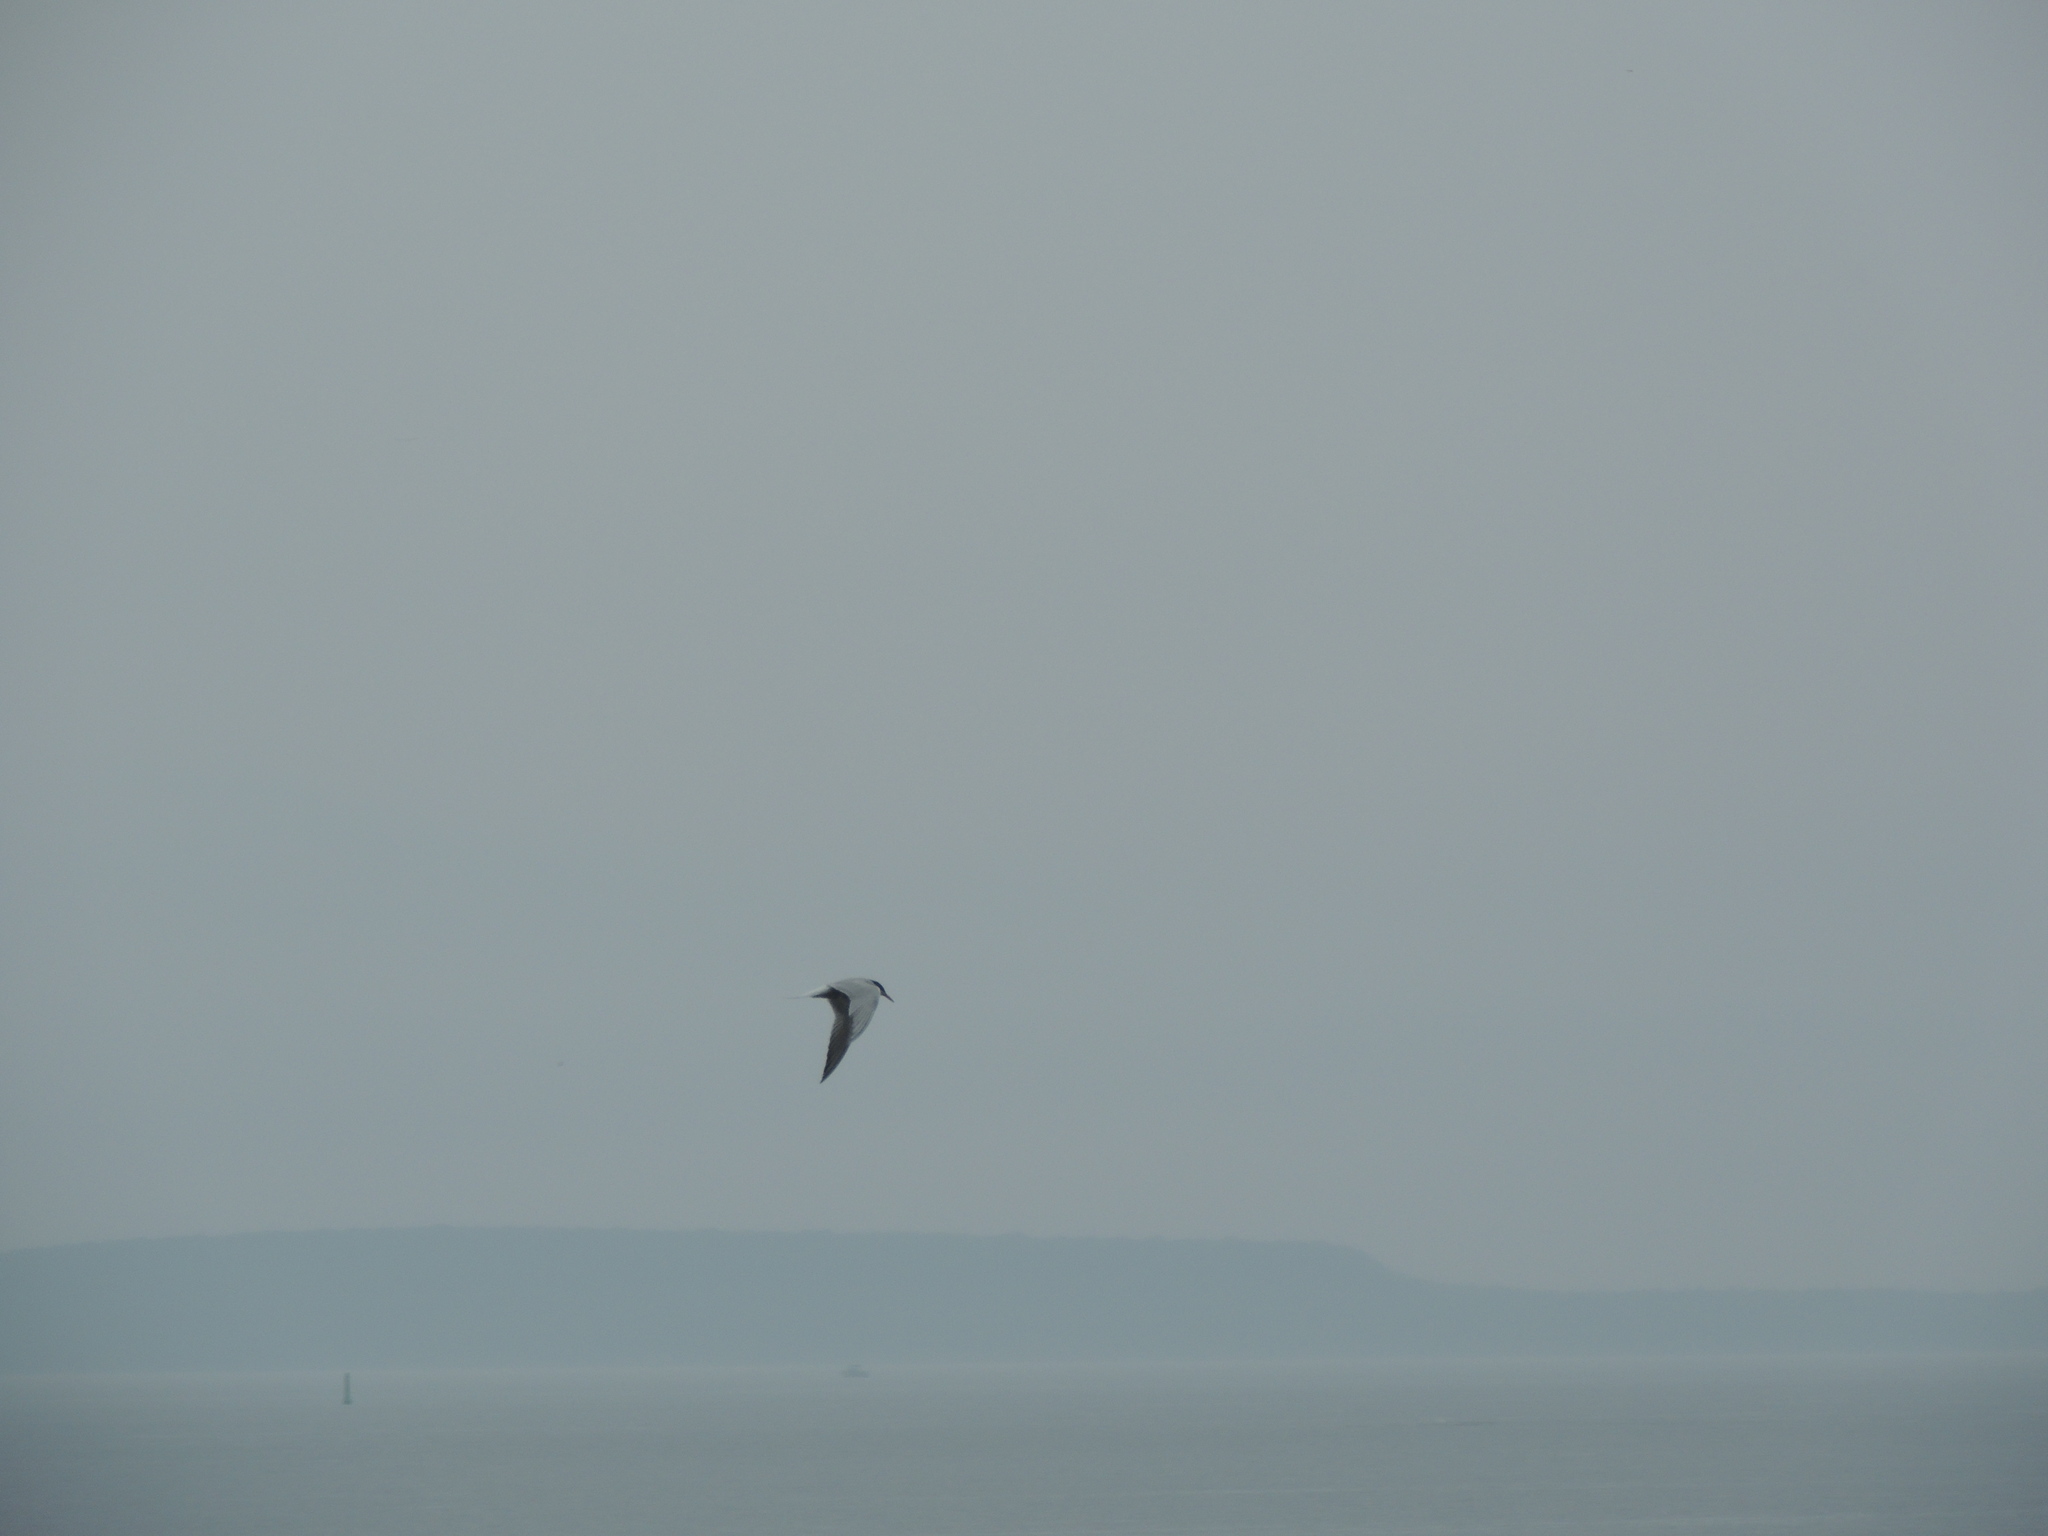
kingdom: Animalia
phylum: Chordata
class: Aves
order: Charadriiformes
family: Laridae
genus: Sterna
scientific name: Sterna hirundo
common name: Common tern
